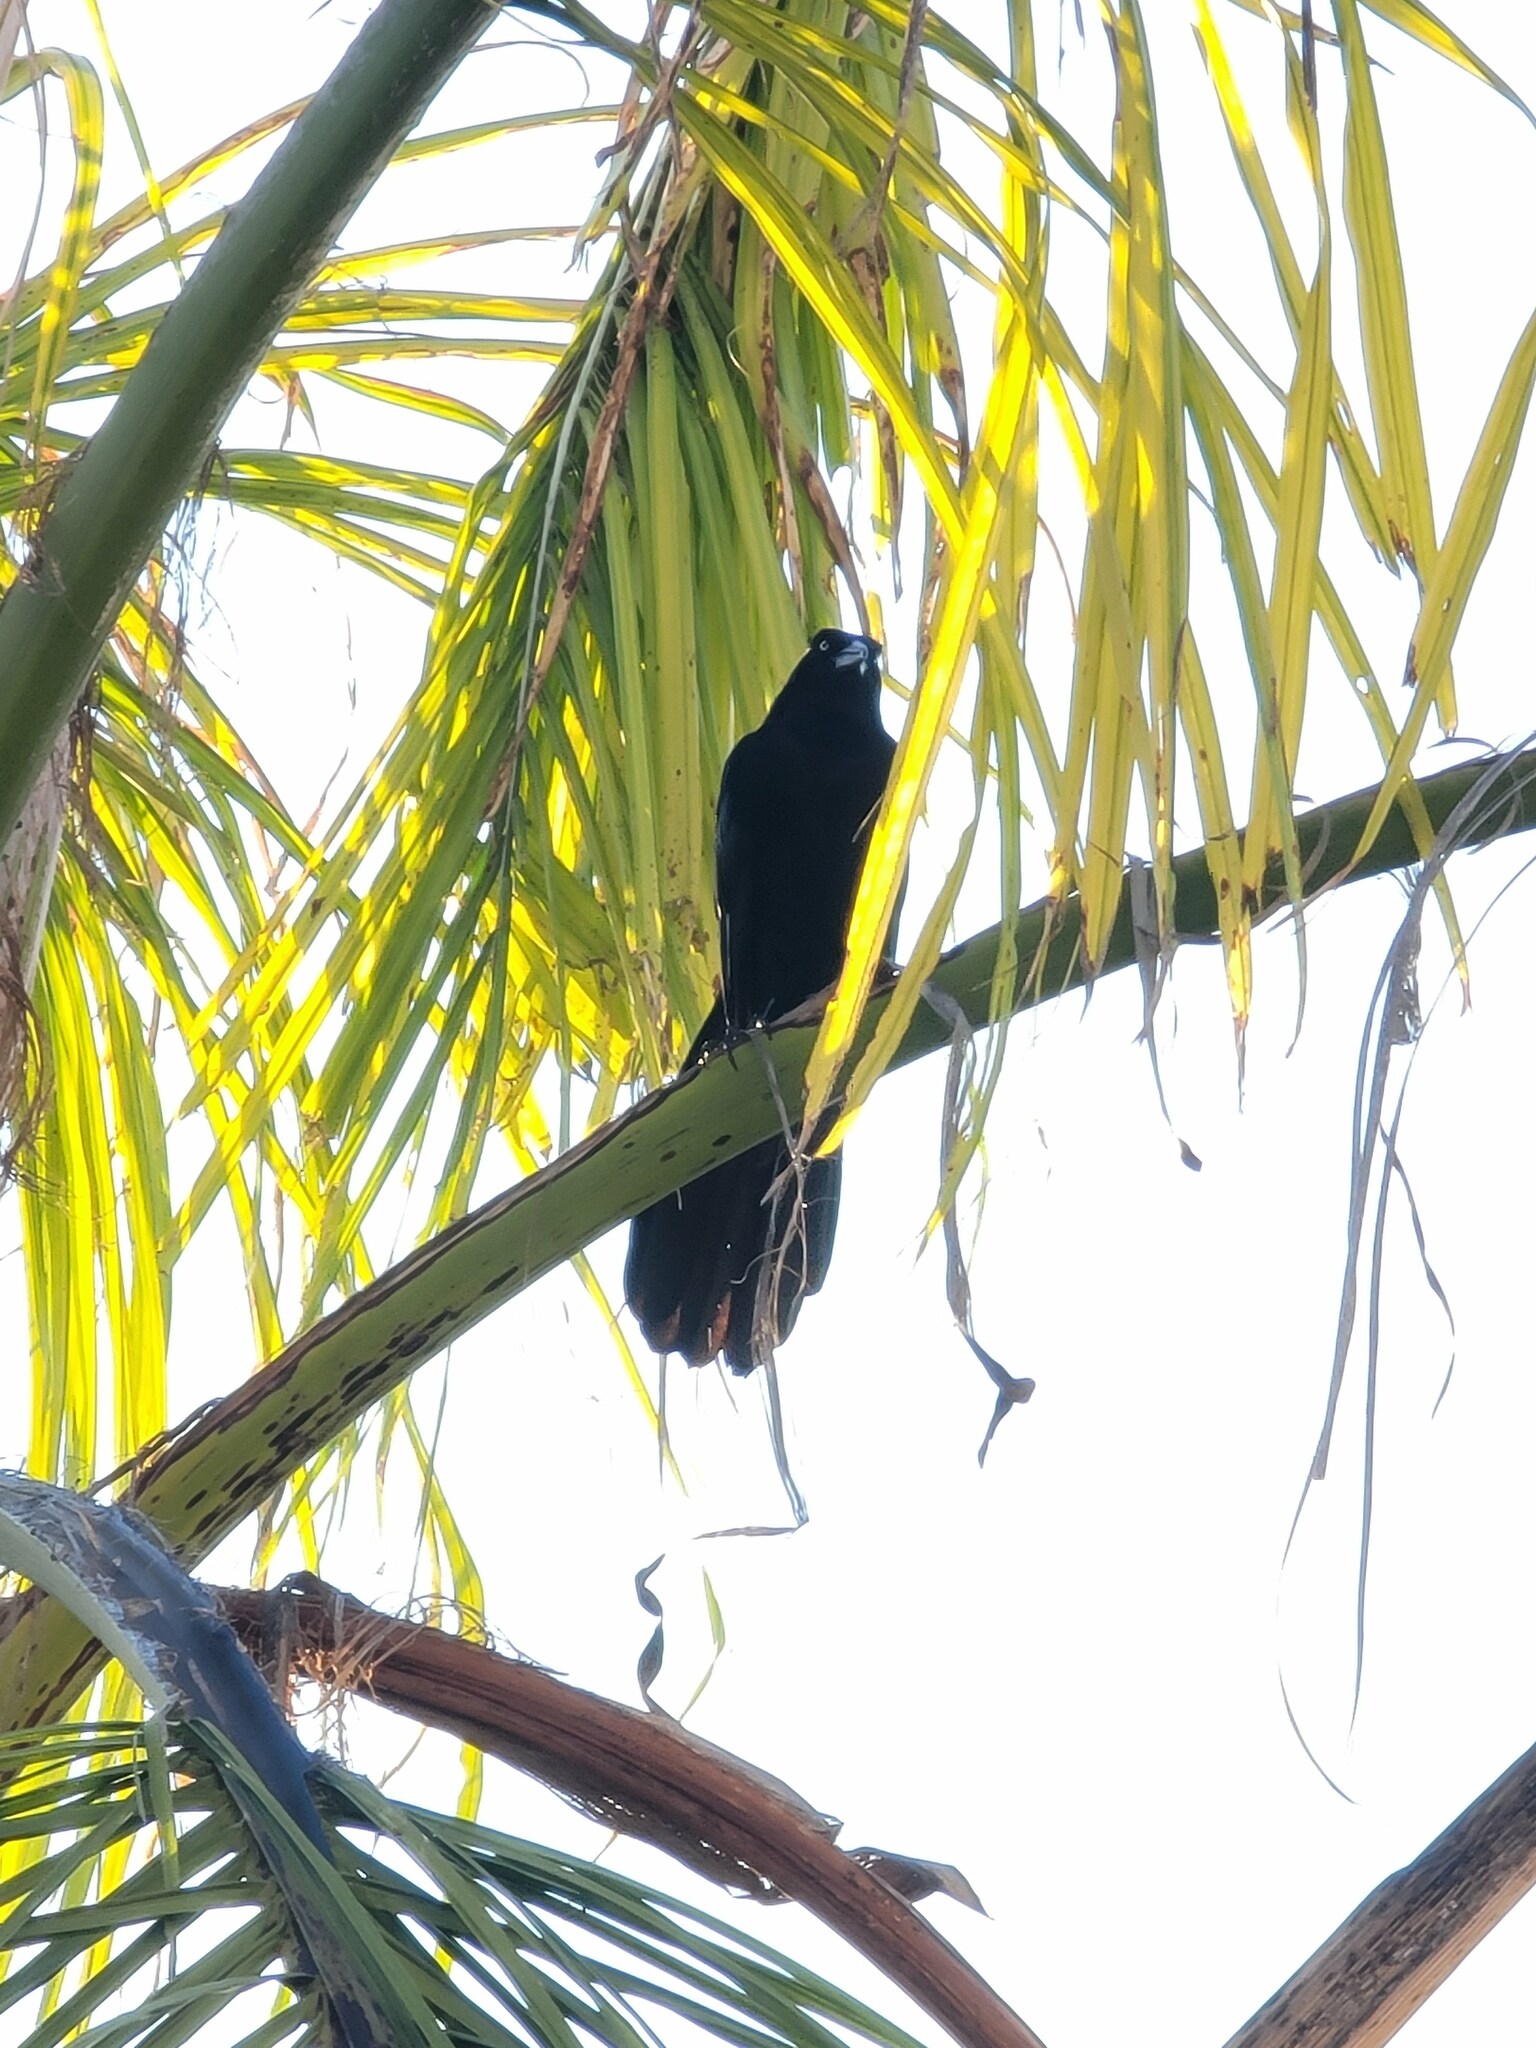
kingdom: Animalia
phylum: Chordata
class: Aves
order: Passeriformes
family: Icteridae
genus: Quiscalus
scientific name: Quiscalus mexicanus
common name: Great-tailed grackle
